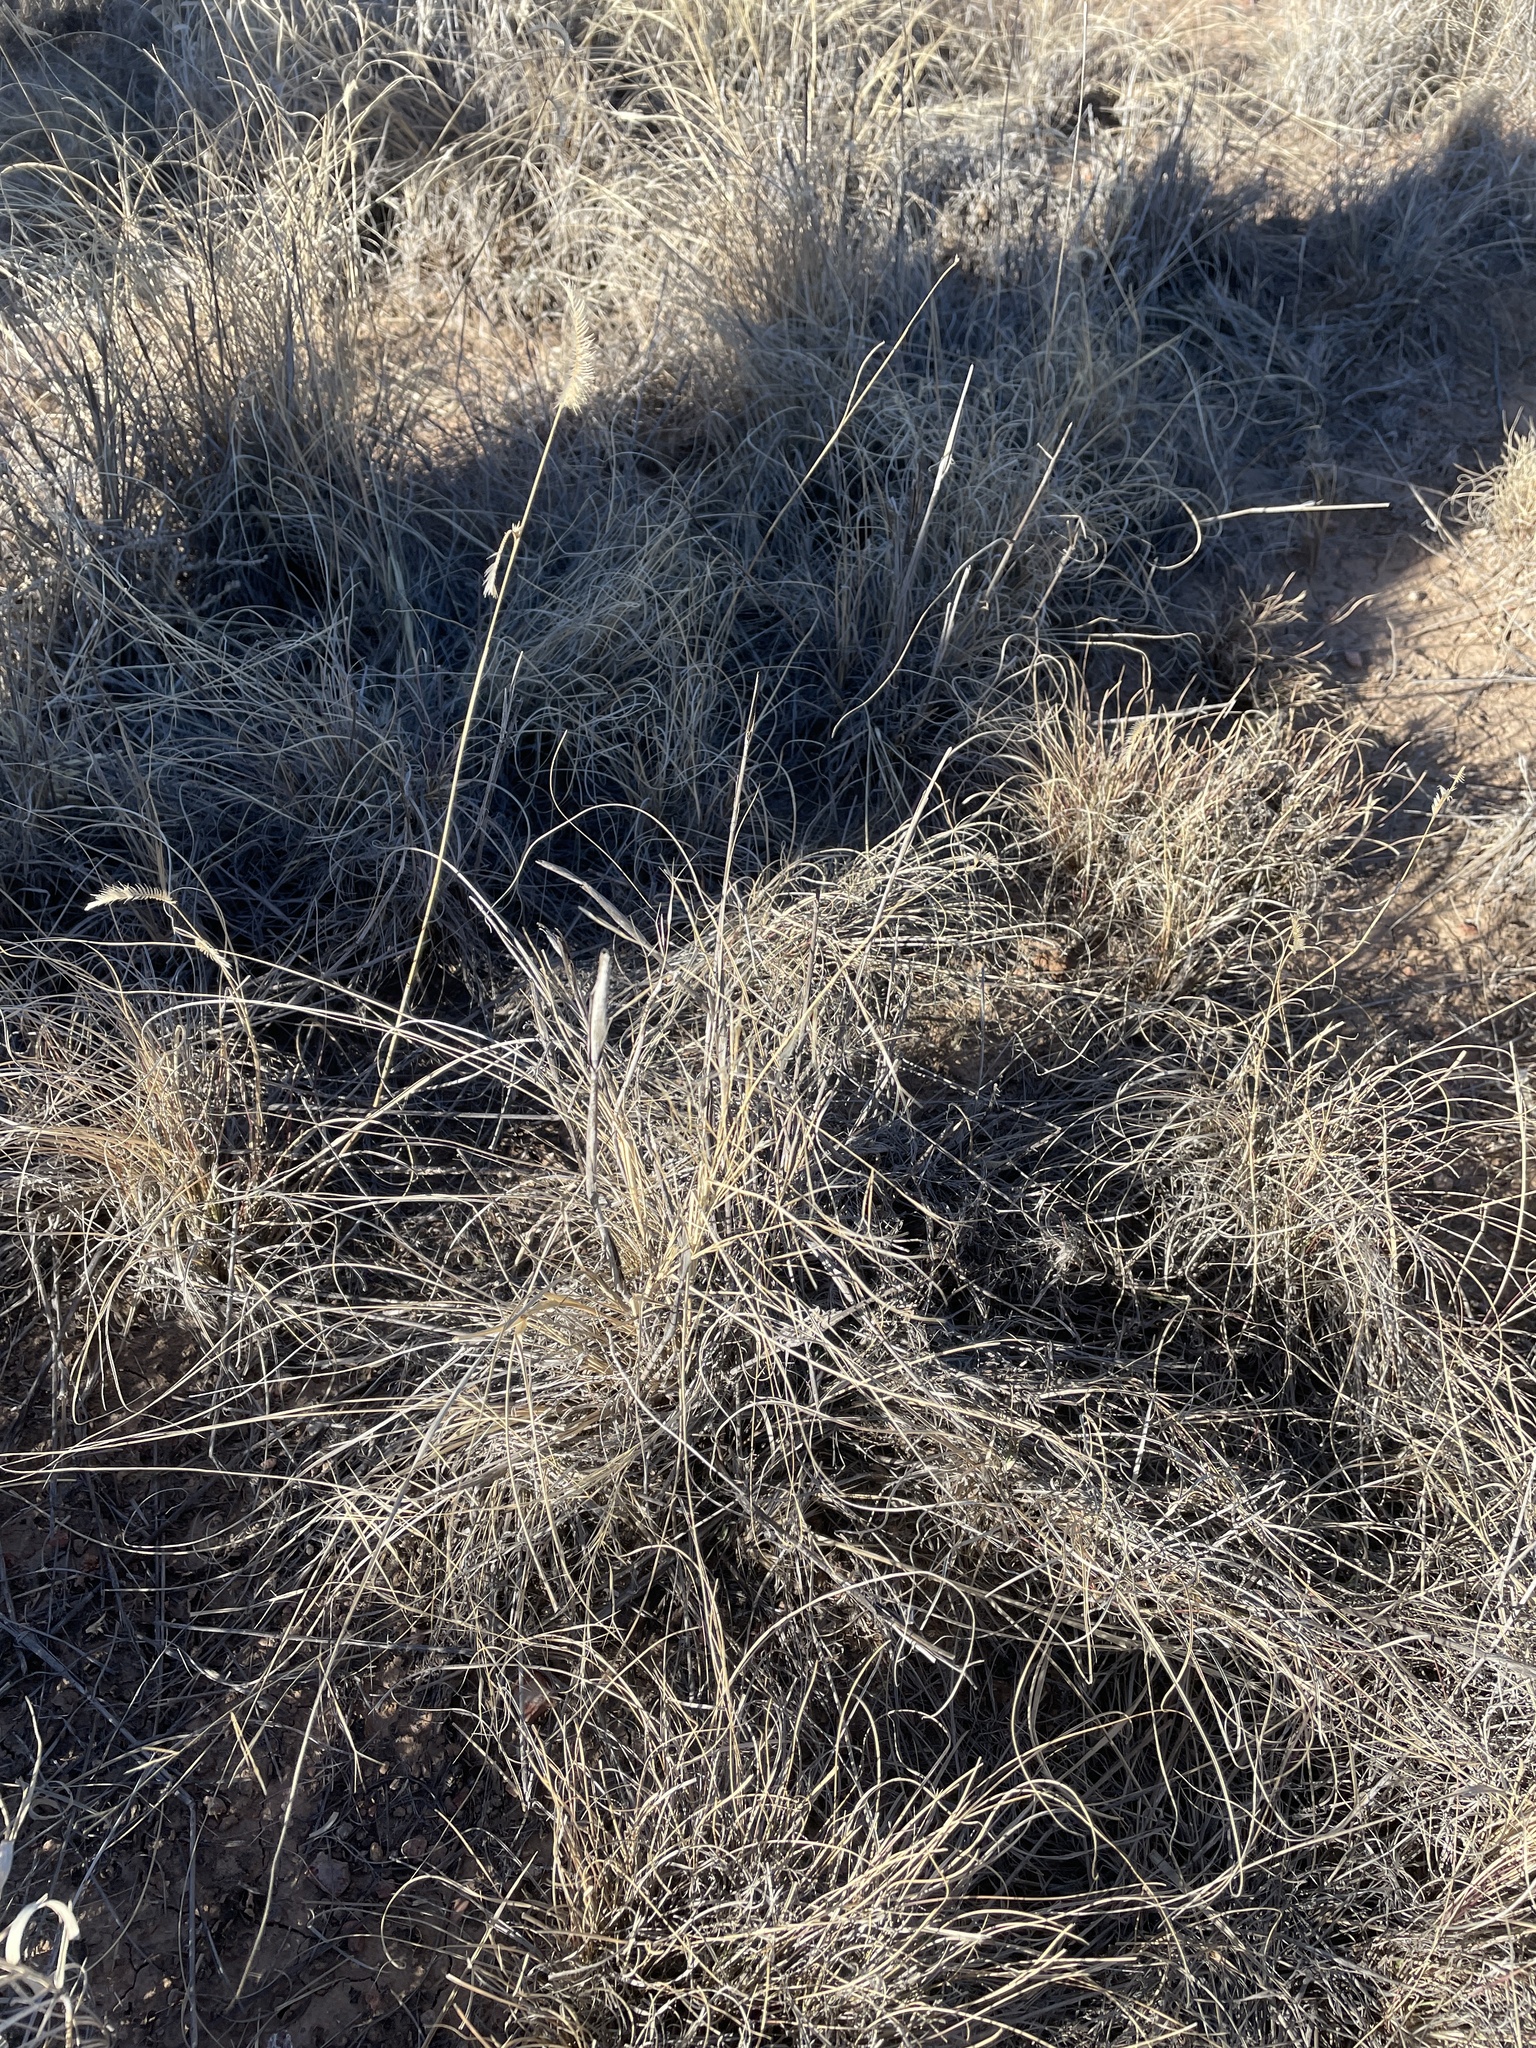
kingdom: Plantae
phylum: Tracheophyta
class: Liliopsida
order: Poales
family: Poaceae
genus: Aristida
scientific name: Aristida ternipes
